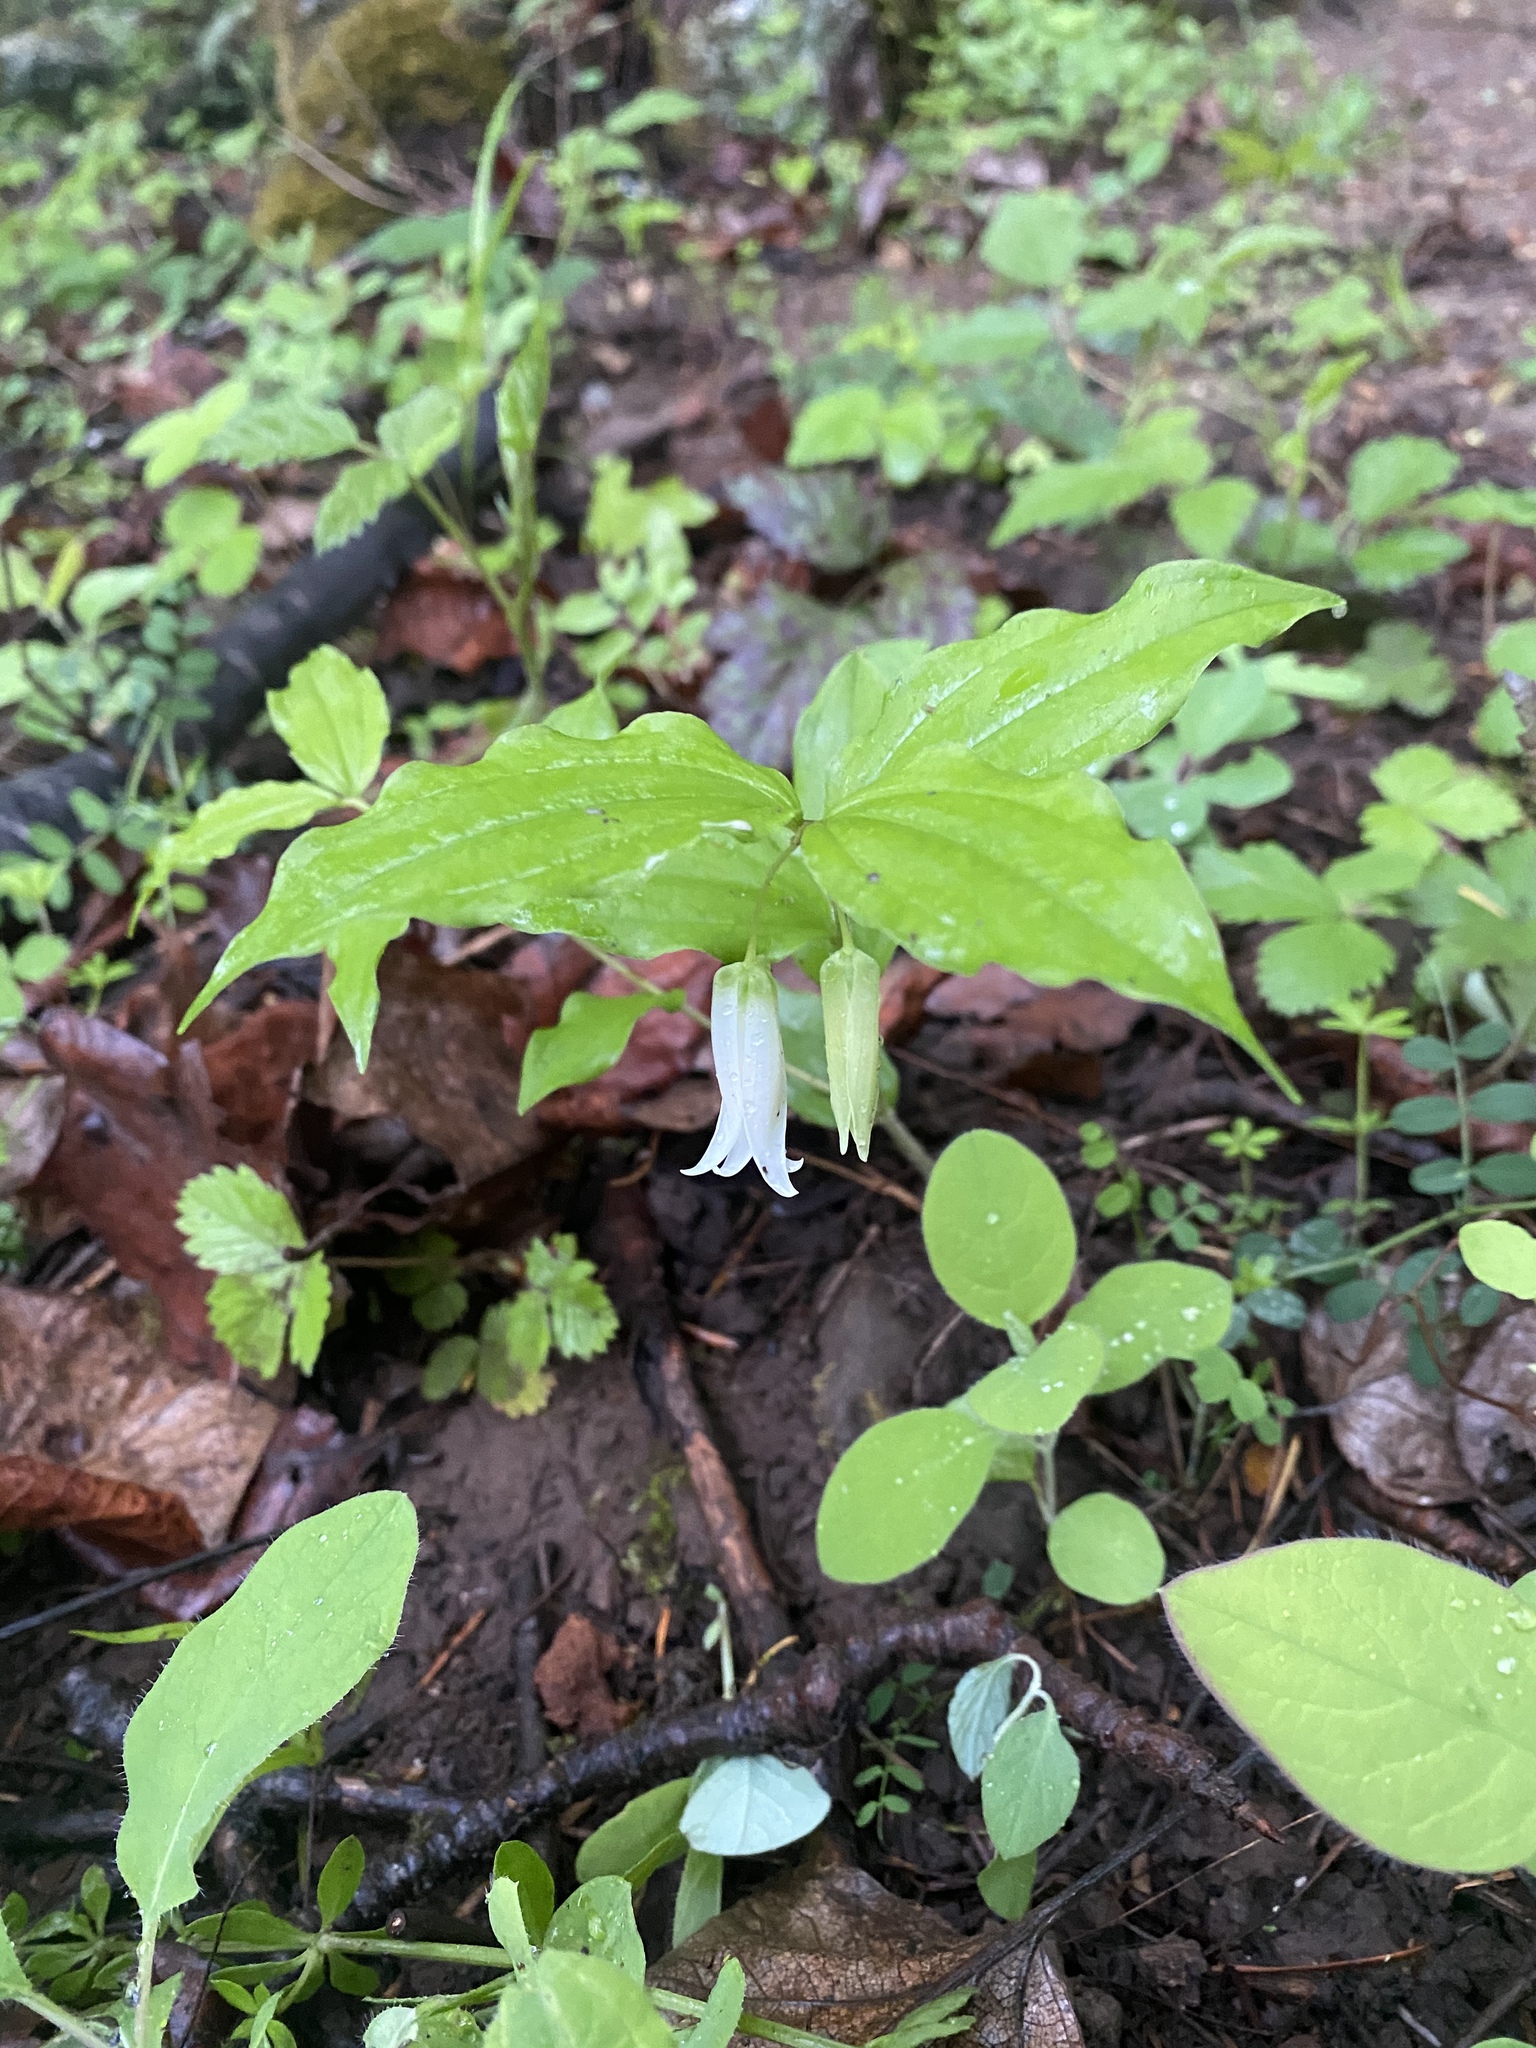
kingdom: Plantae
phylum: Tracheophyta
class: Liliopsida
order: Liliales
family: Liliaceae
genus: Prosartes
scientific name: Prosartes smithii
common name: Fairy-lantern
